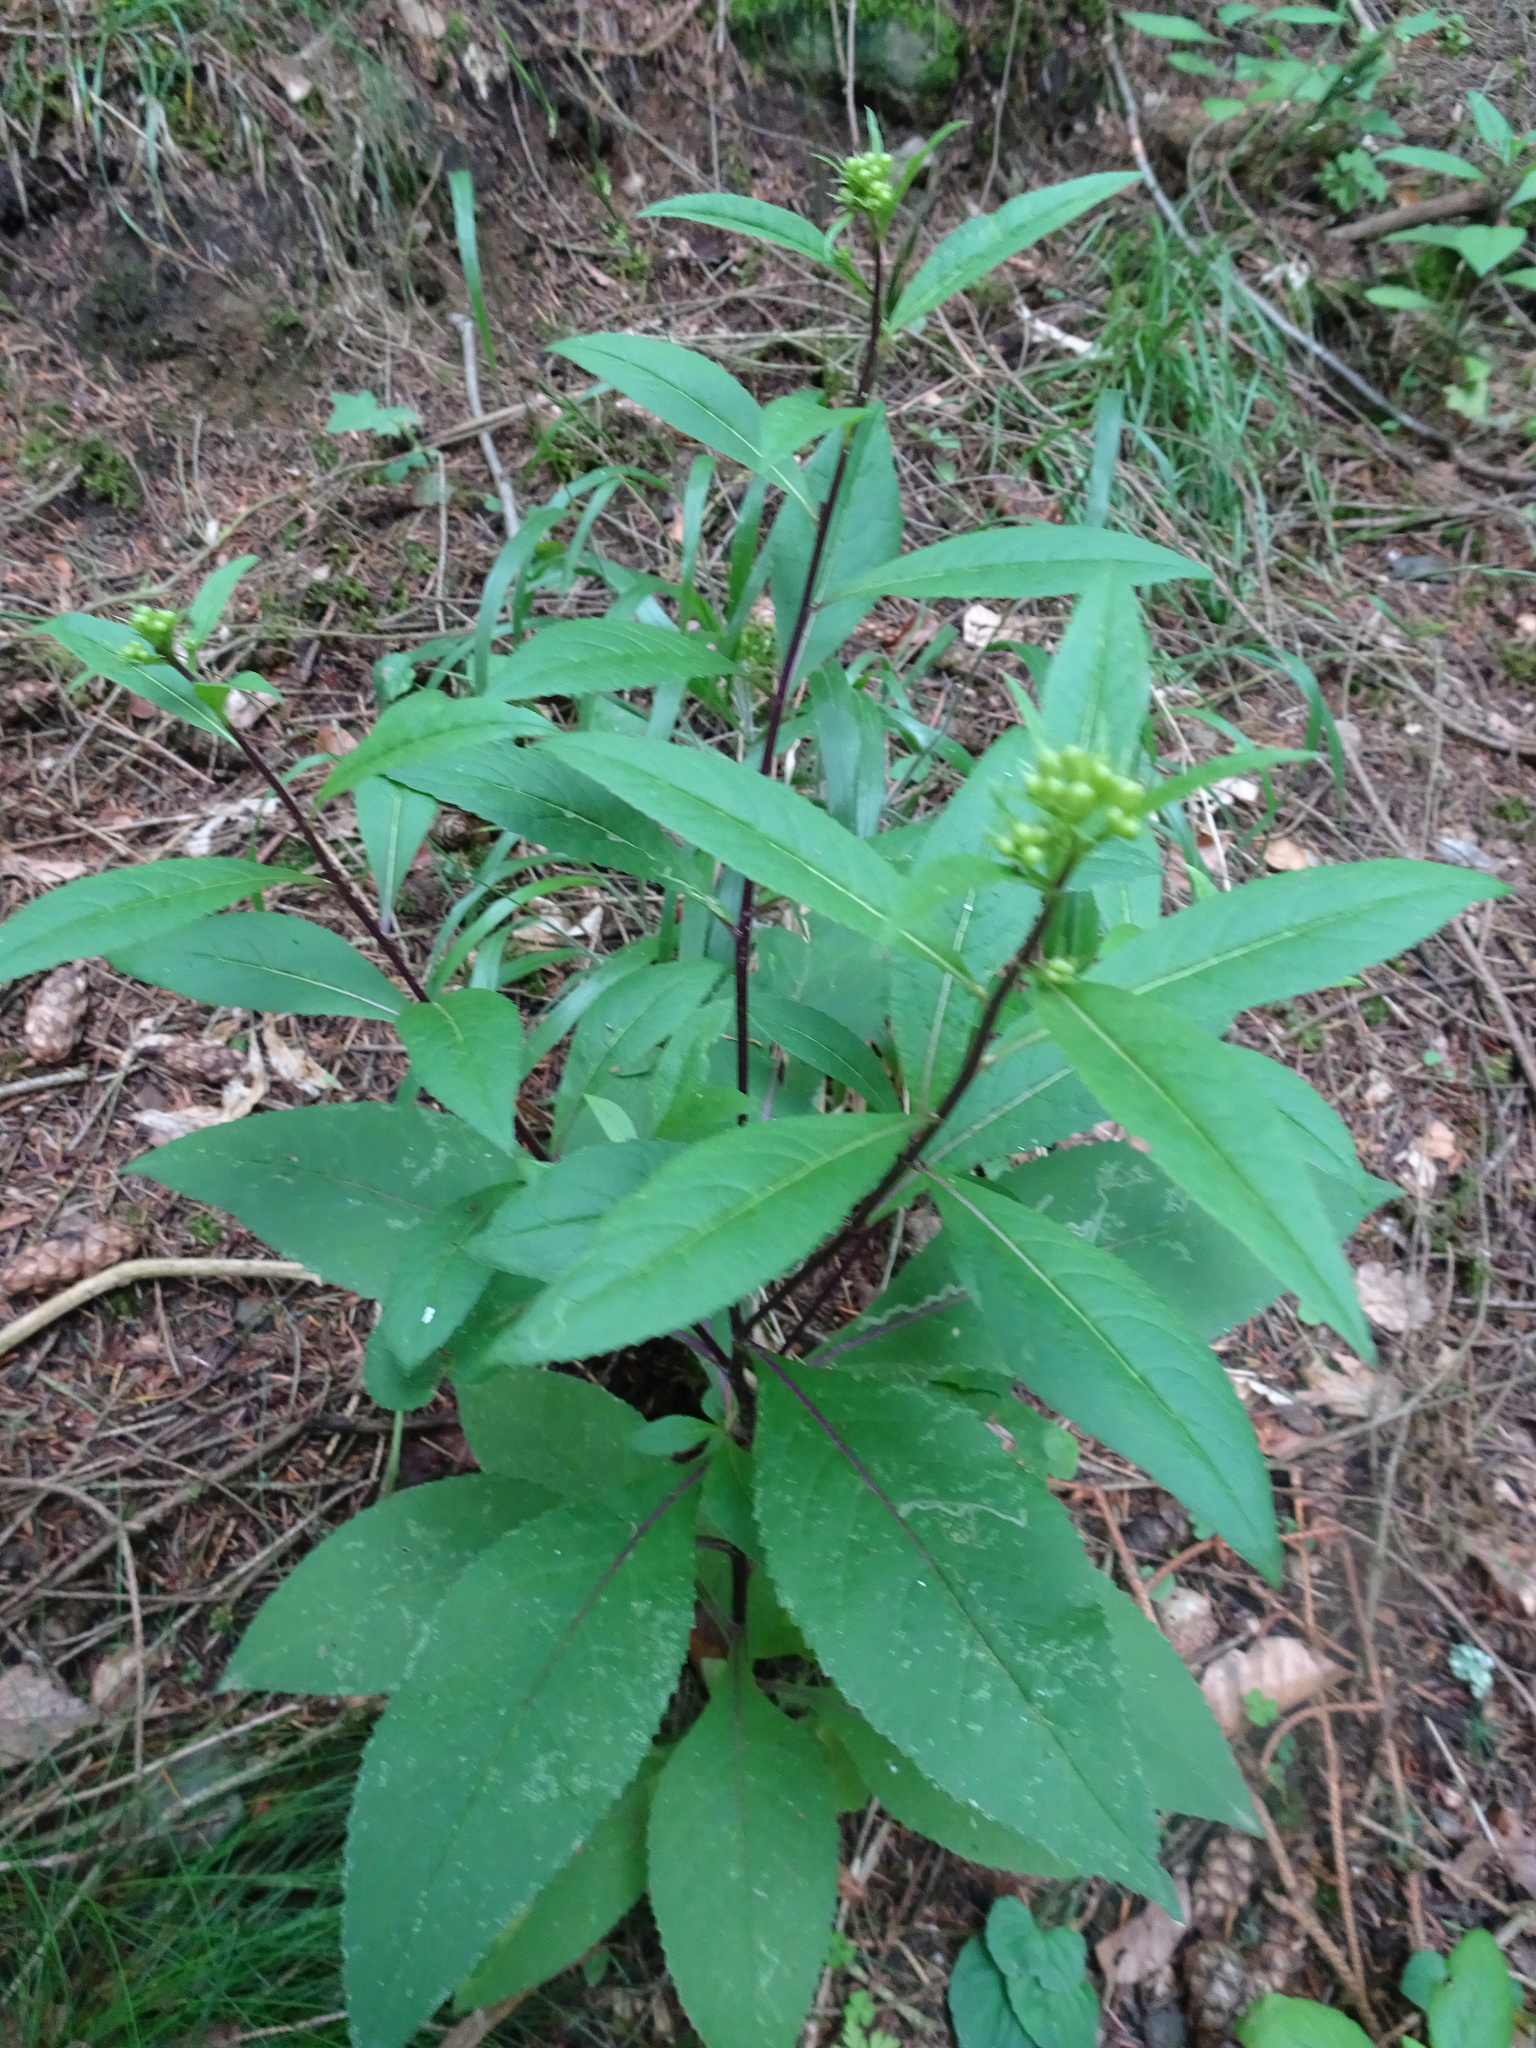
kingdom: Plantae
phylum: Tracheophyta
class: Magnoliopsida
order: Asterales
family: Asteraceae
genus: Senecio
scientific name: Senecio ovatus
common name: Wood ragwort
